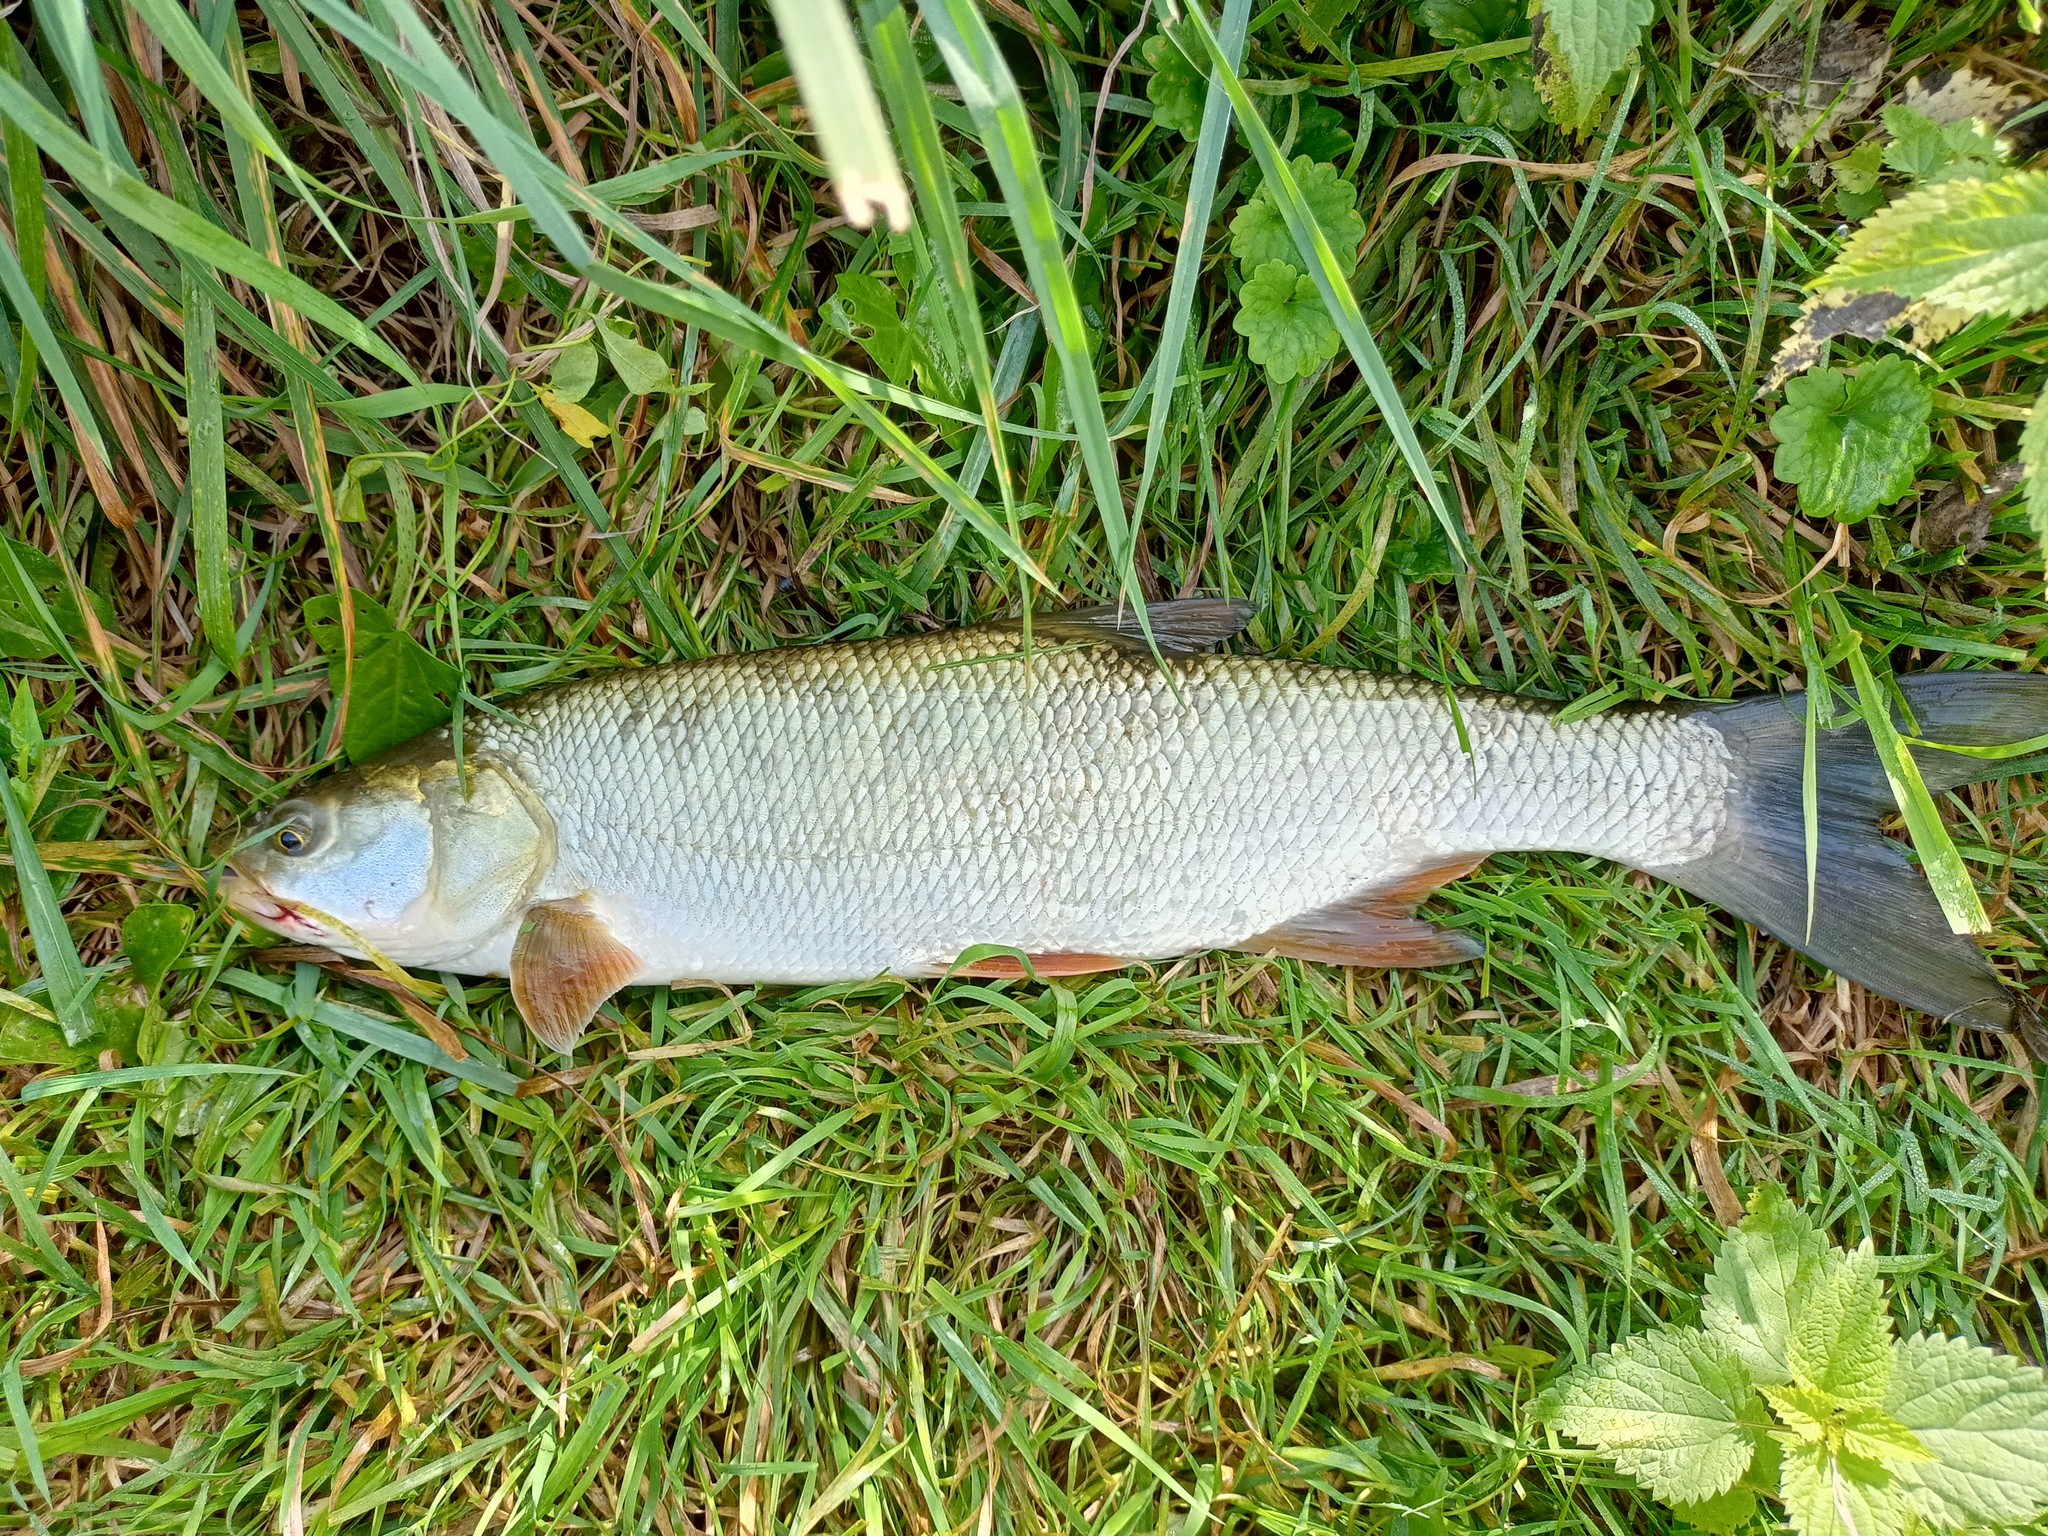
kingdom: Animalia
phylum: Chordata
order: Cypriniformes
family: Cyprinidae
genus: Leuciscus
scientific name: Leuciscus aspius
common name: Asp
